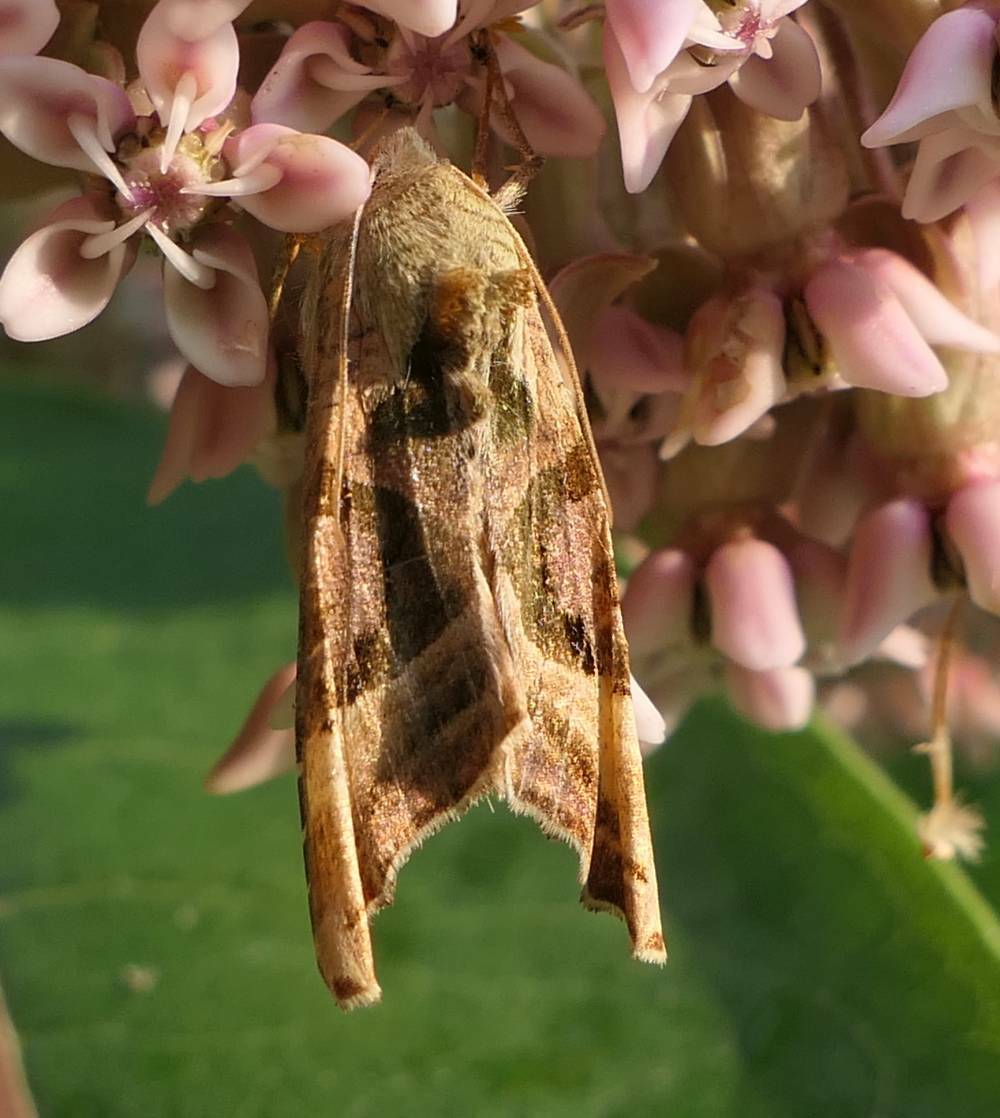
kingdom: Animalia
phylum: Arthropoda
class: Insecta
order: Lepidoptera
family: Noctuidae
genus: Phlogophora
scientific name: Phlogophora iris
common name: Olive angle shades
